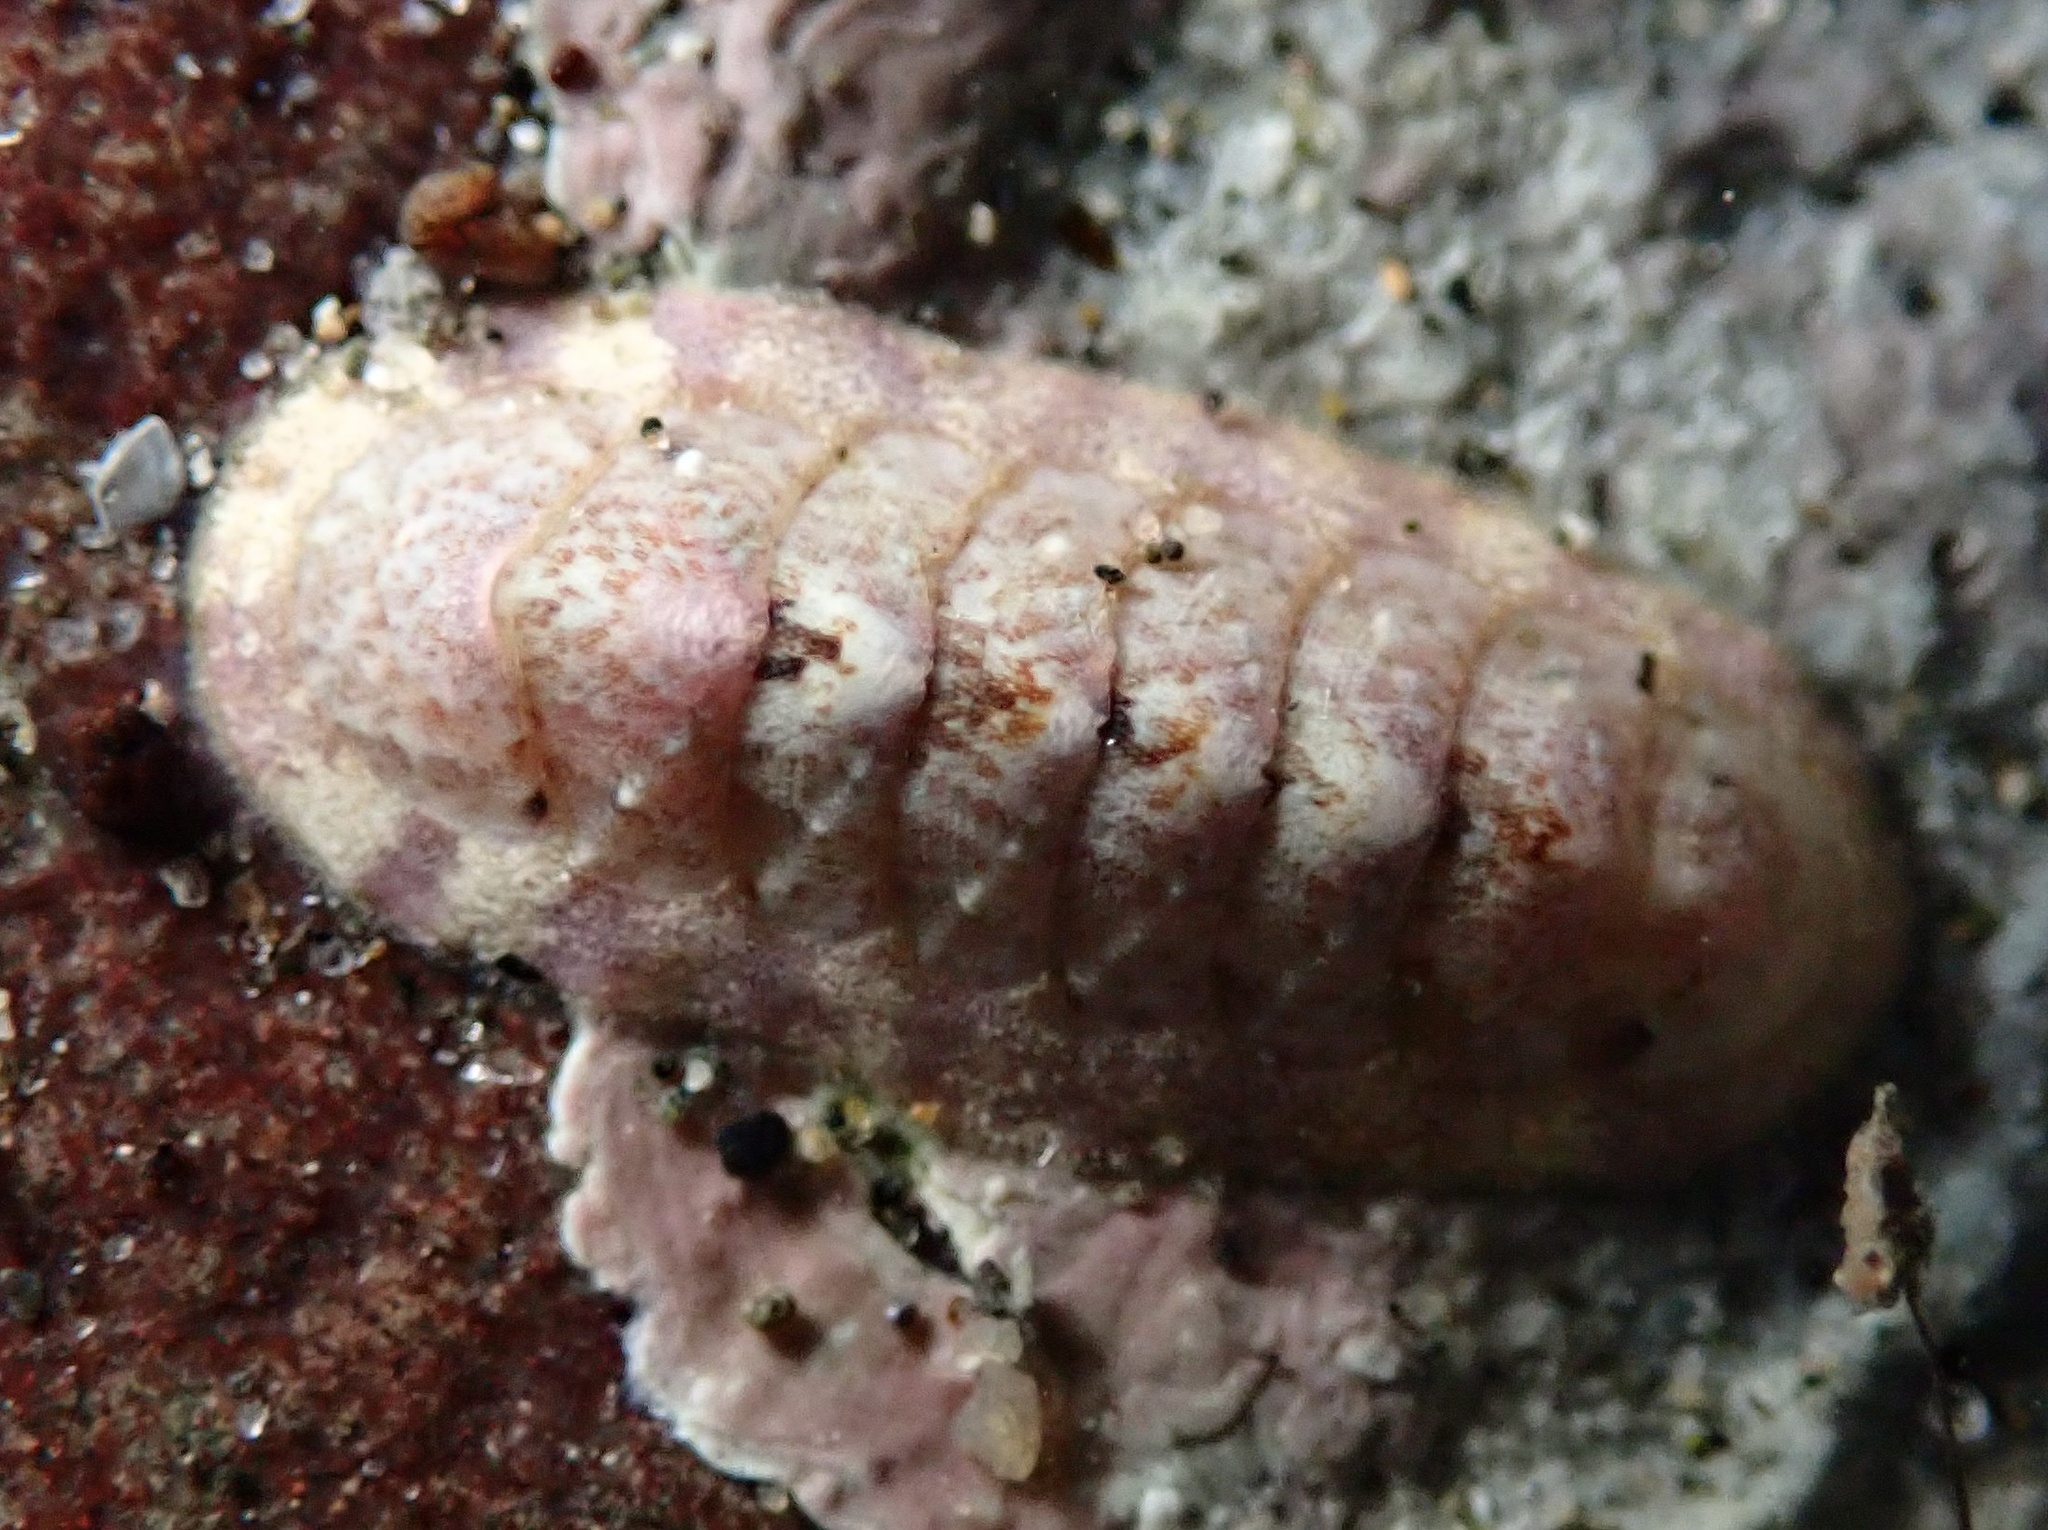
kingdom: Animalia
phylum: Mollusca
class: Polyplacophora
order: Chitonida
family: Ischnochitonidae
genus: Stenoplax
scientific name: Stenoplax heathiana
